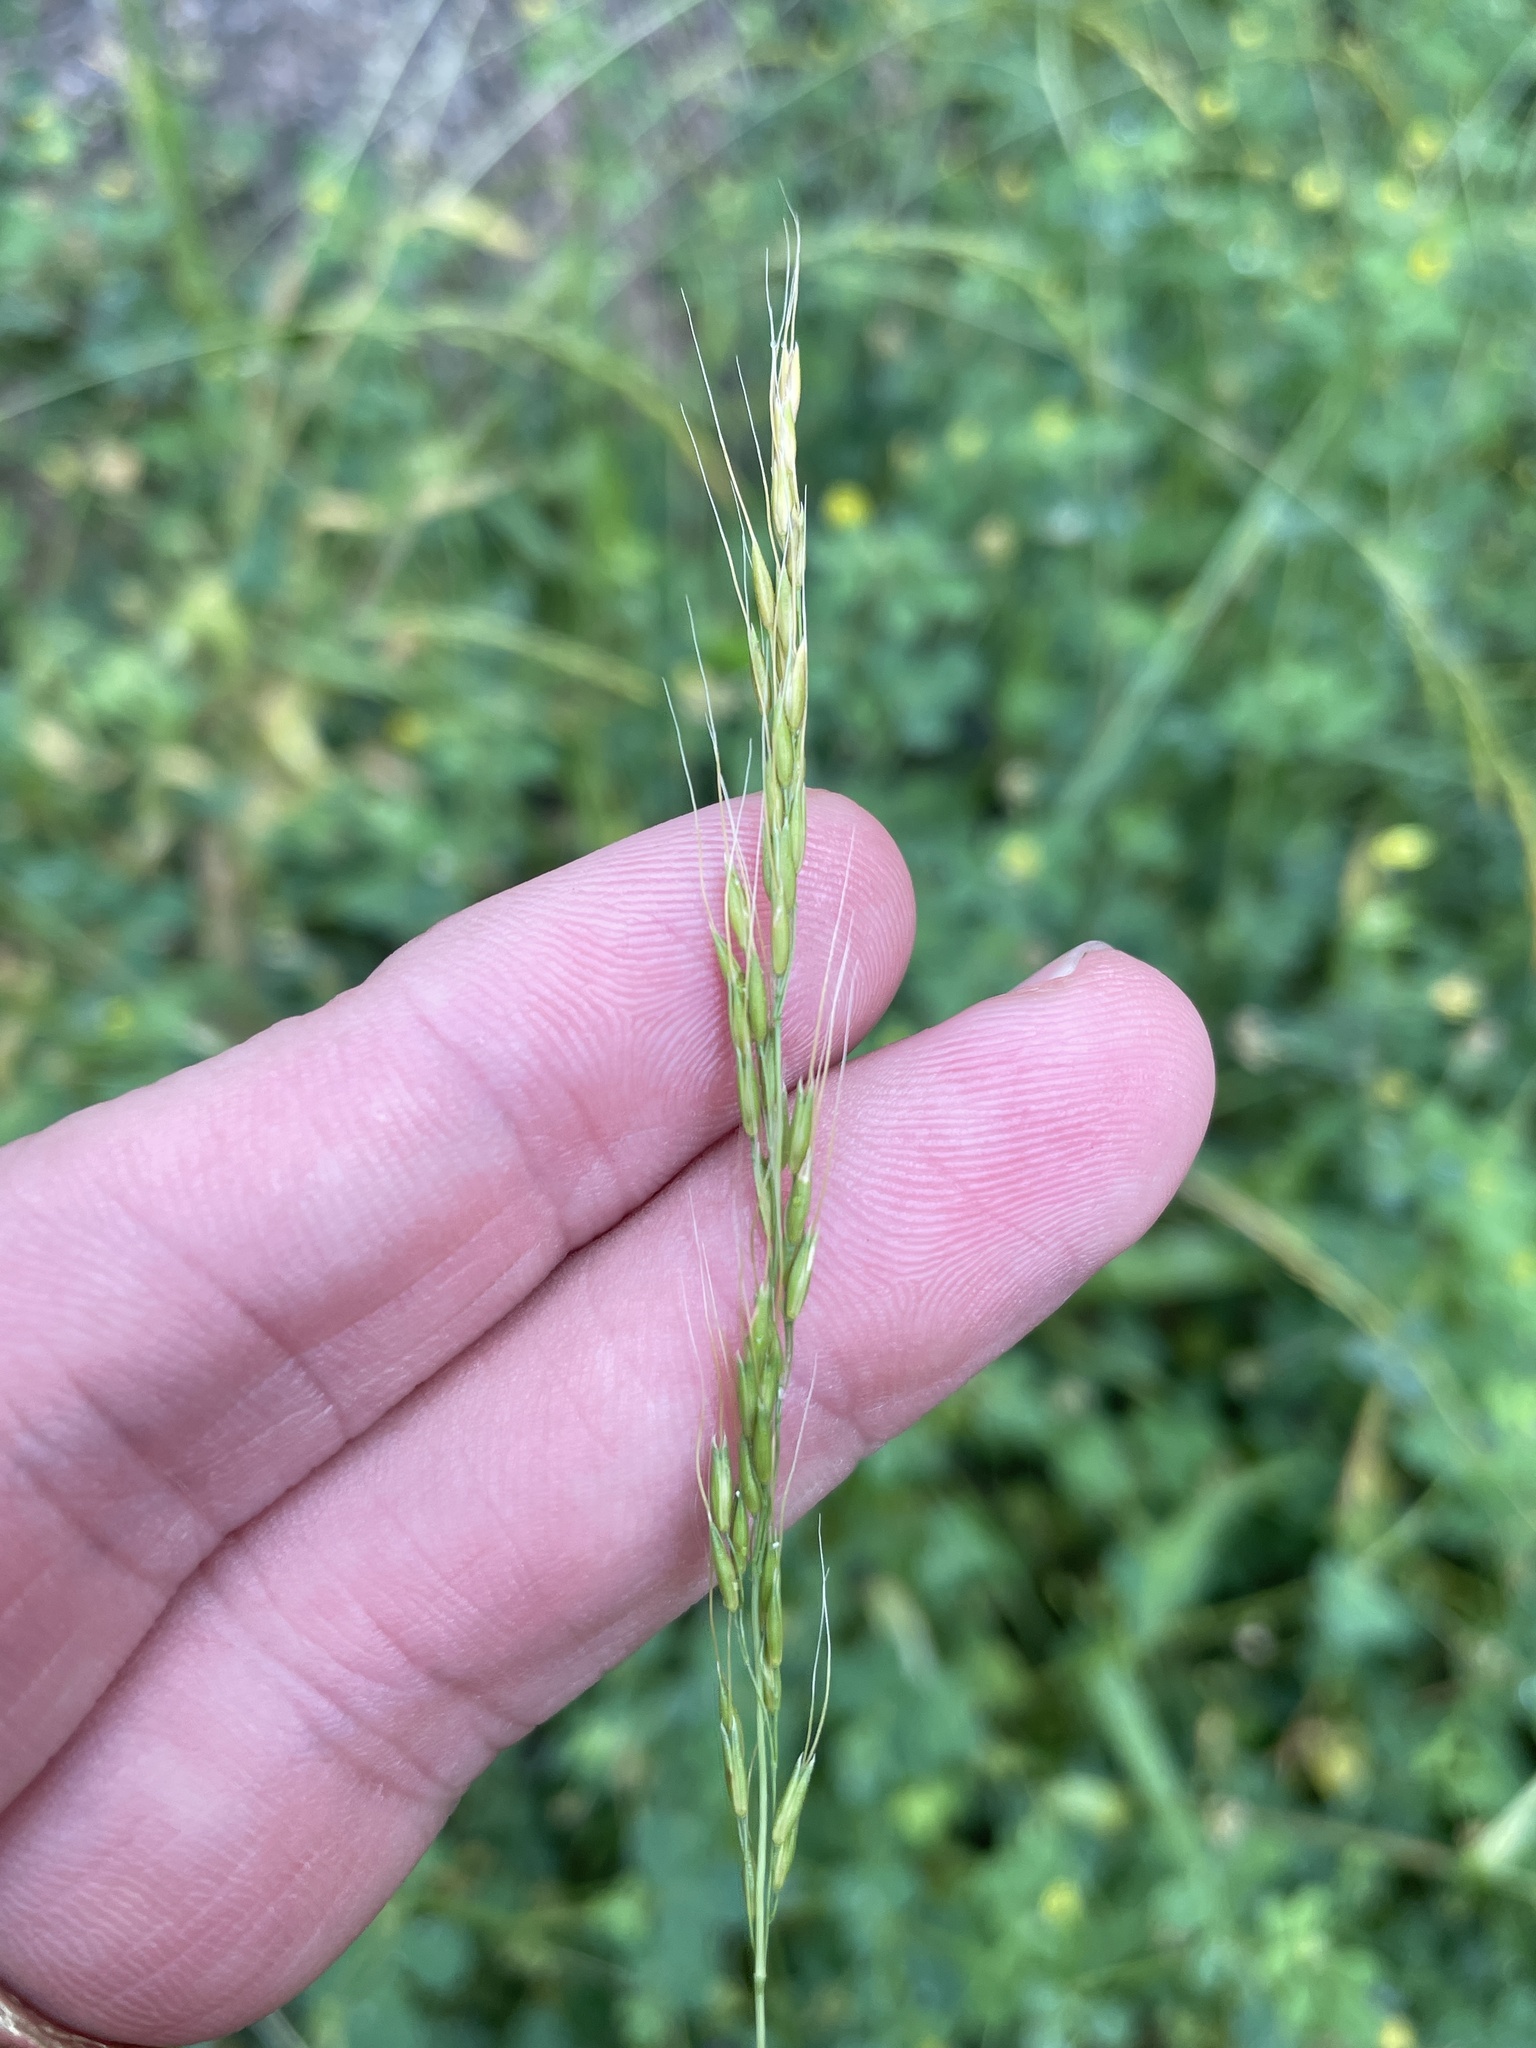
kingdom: Plantae
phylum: Tracheophyta
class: Liliopsida
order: Poales
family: Poaceae
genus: Limnodea
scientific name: Limnodea arkansana
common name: Ozark-grass
